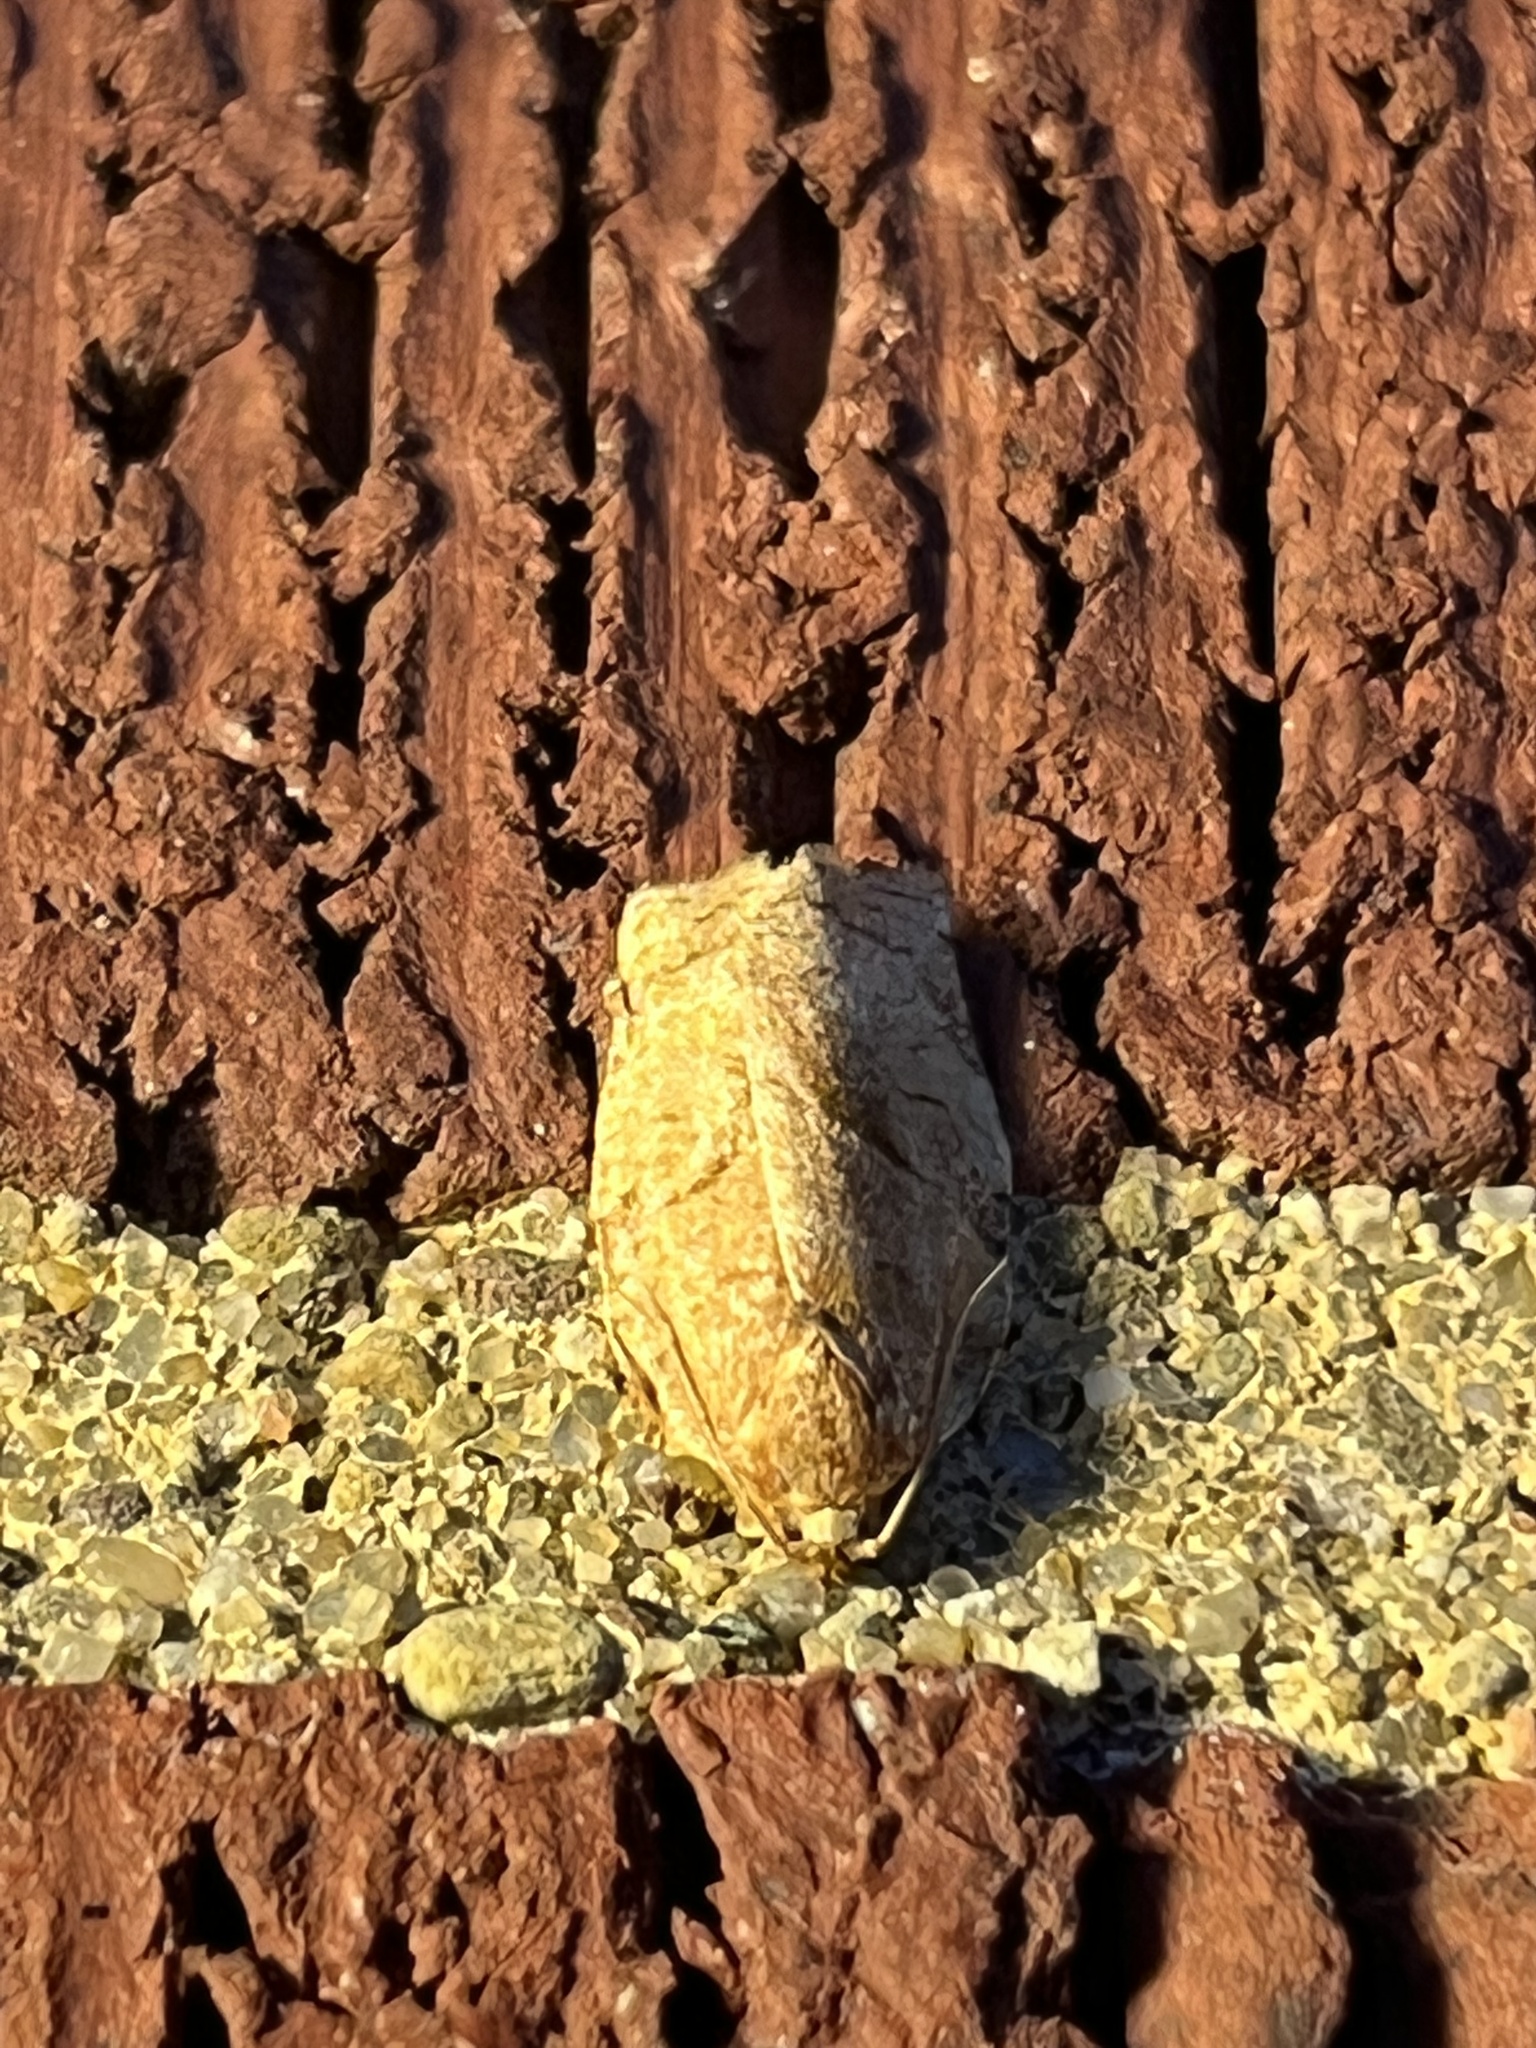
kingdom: Animalia
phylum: Arthropoda
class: Insecta
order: Lepidoptera
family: Tortricidae
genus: Choristoneura
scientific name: Choristoneura rosaceana
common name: Oblique-banded leafroller moth
